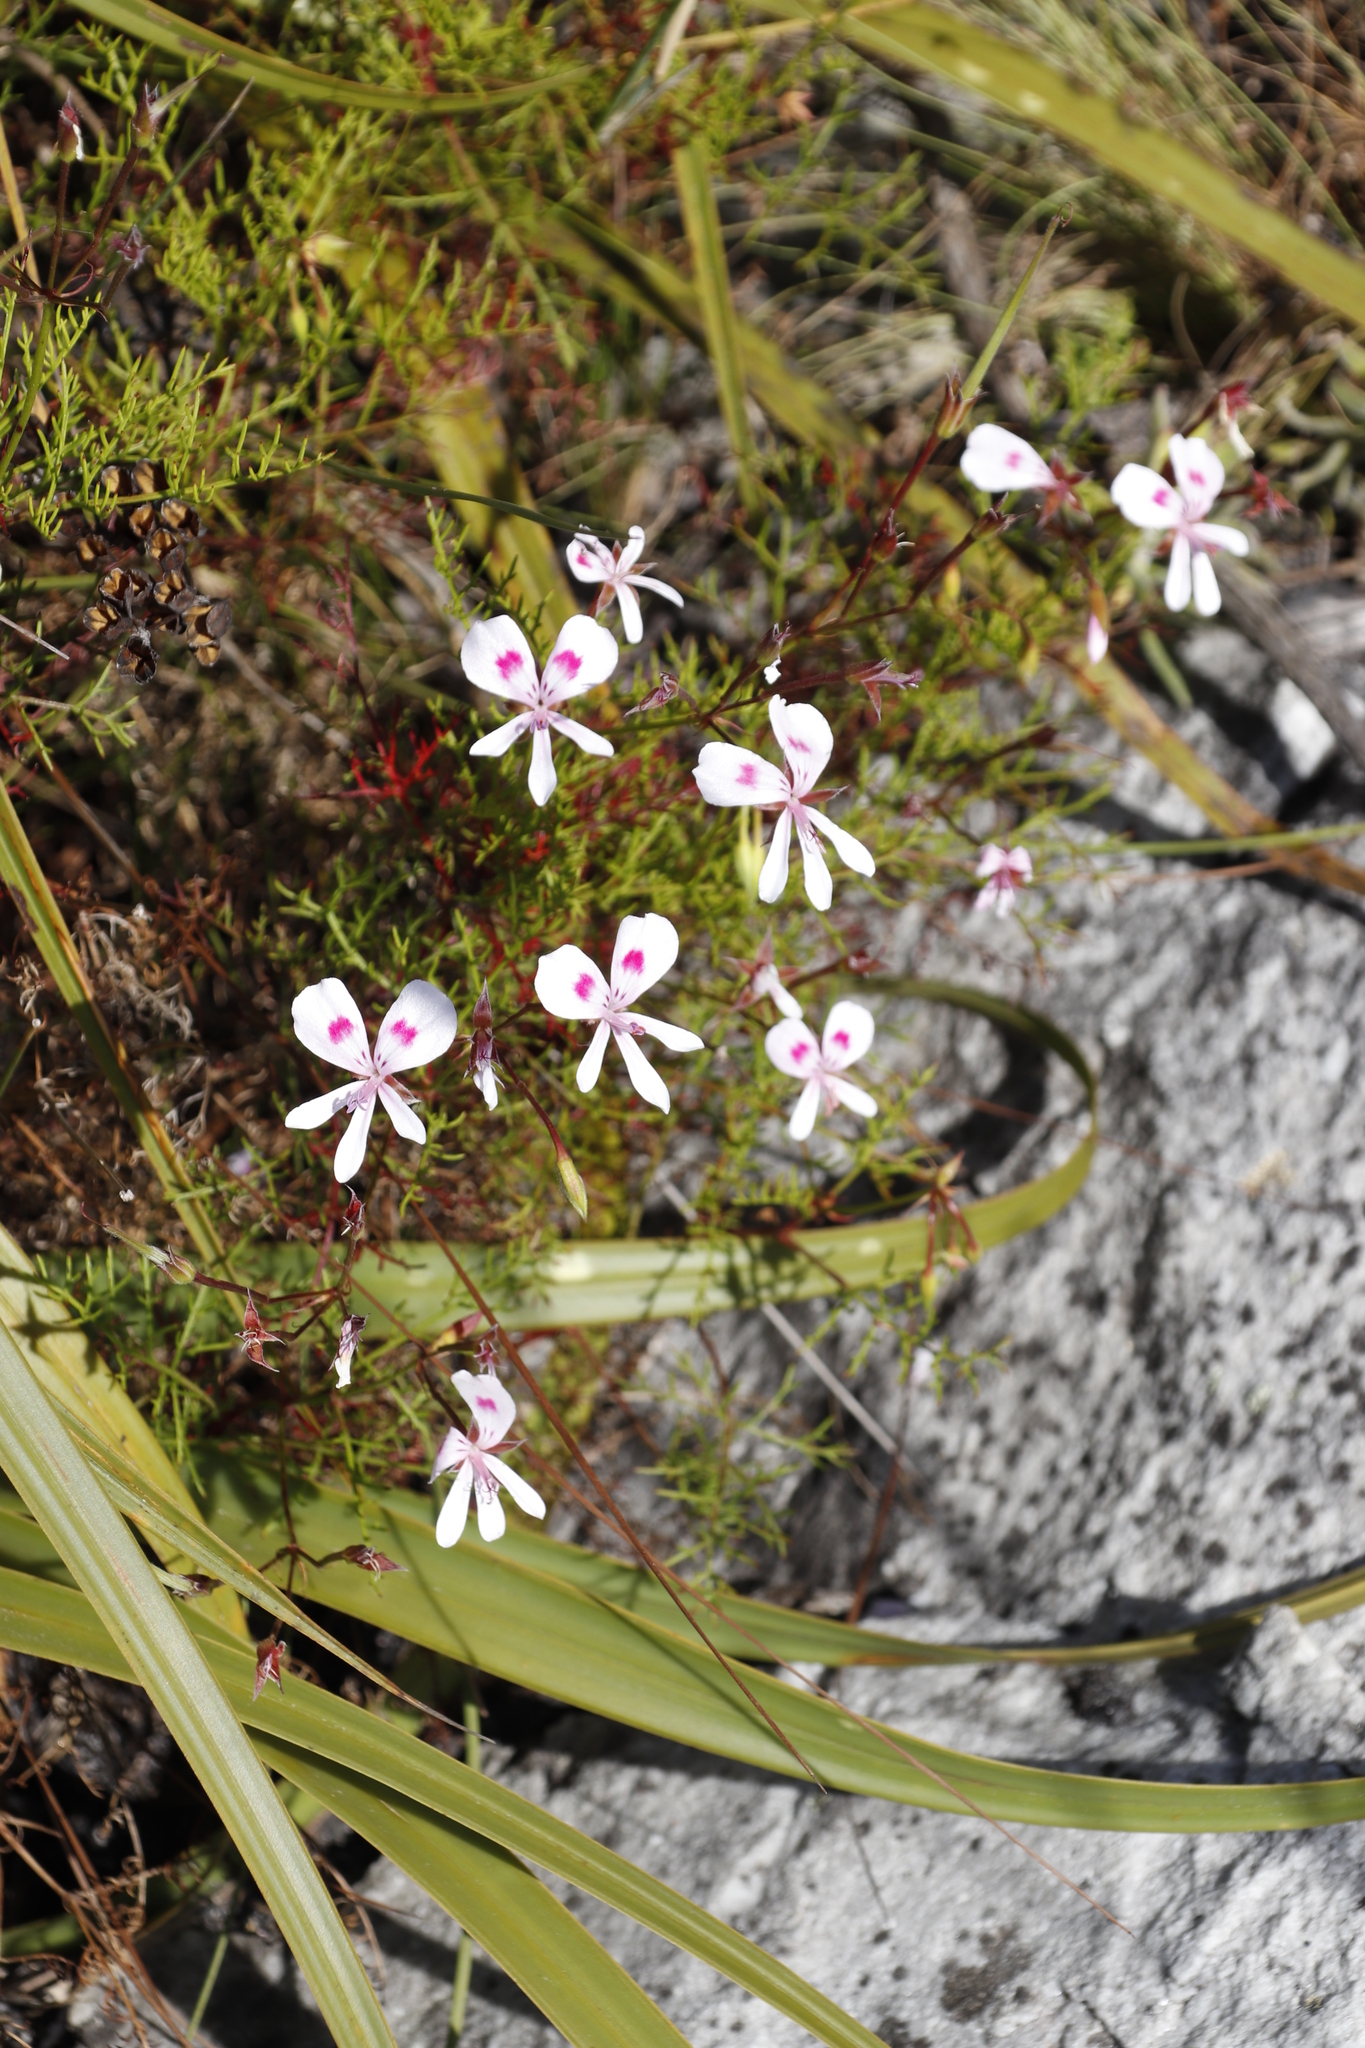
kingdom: Plantae
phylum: Tracheophyta
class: Magnoliopsida
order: Geraniales
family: Geraniaceae
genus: Pelargonium
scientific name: Pelargonium artemisiifolium
